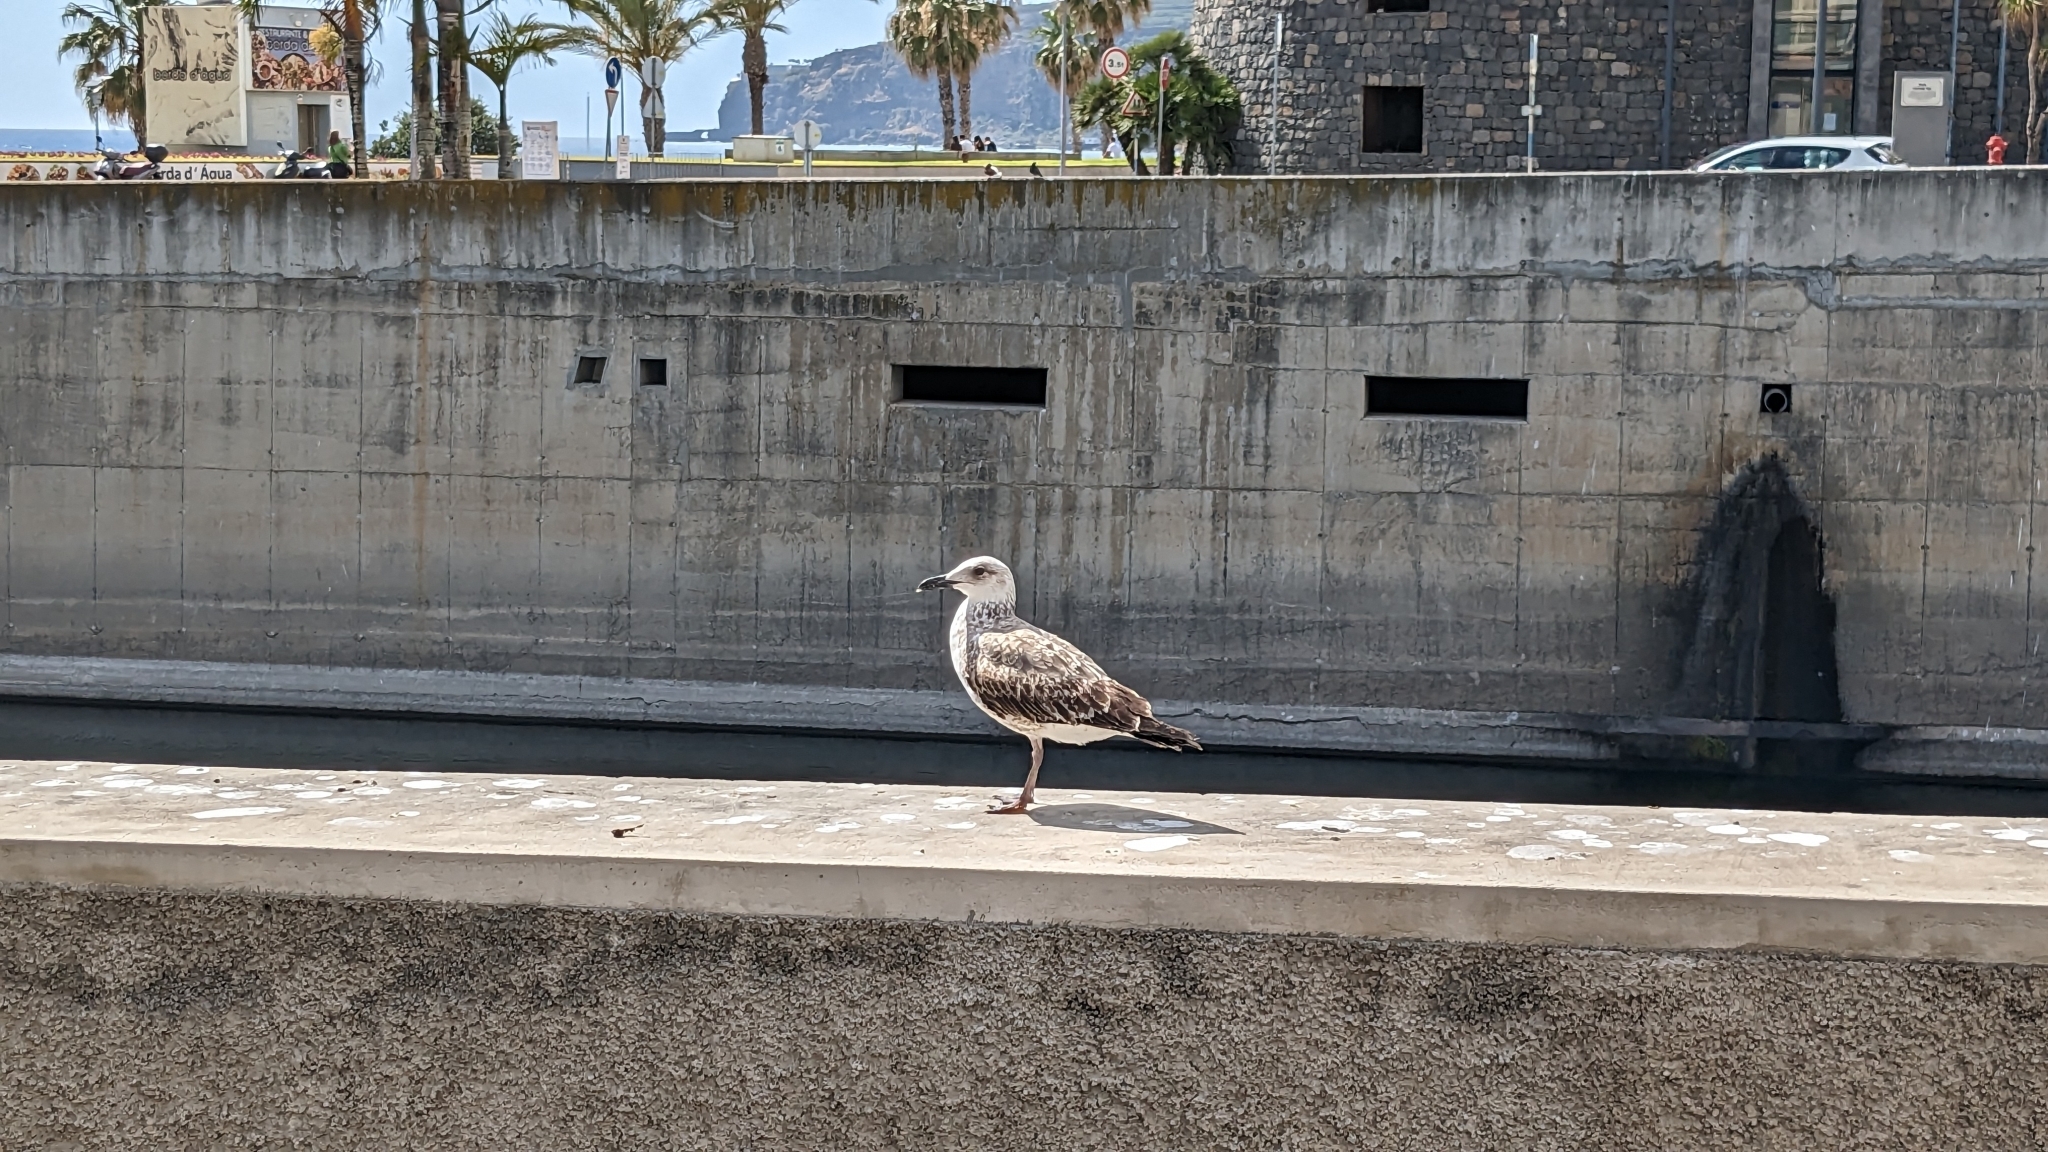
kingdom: Animalia
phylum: Chordata
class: Aves
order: Charadriiformes
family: Laridae
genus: Larus
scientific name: Larus michahellis
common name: Yellow-legged gull
